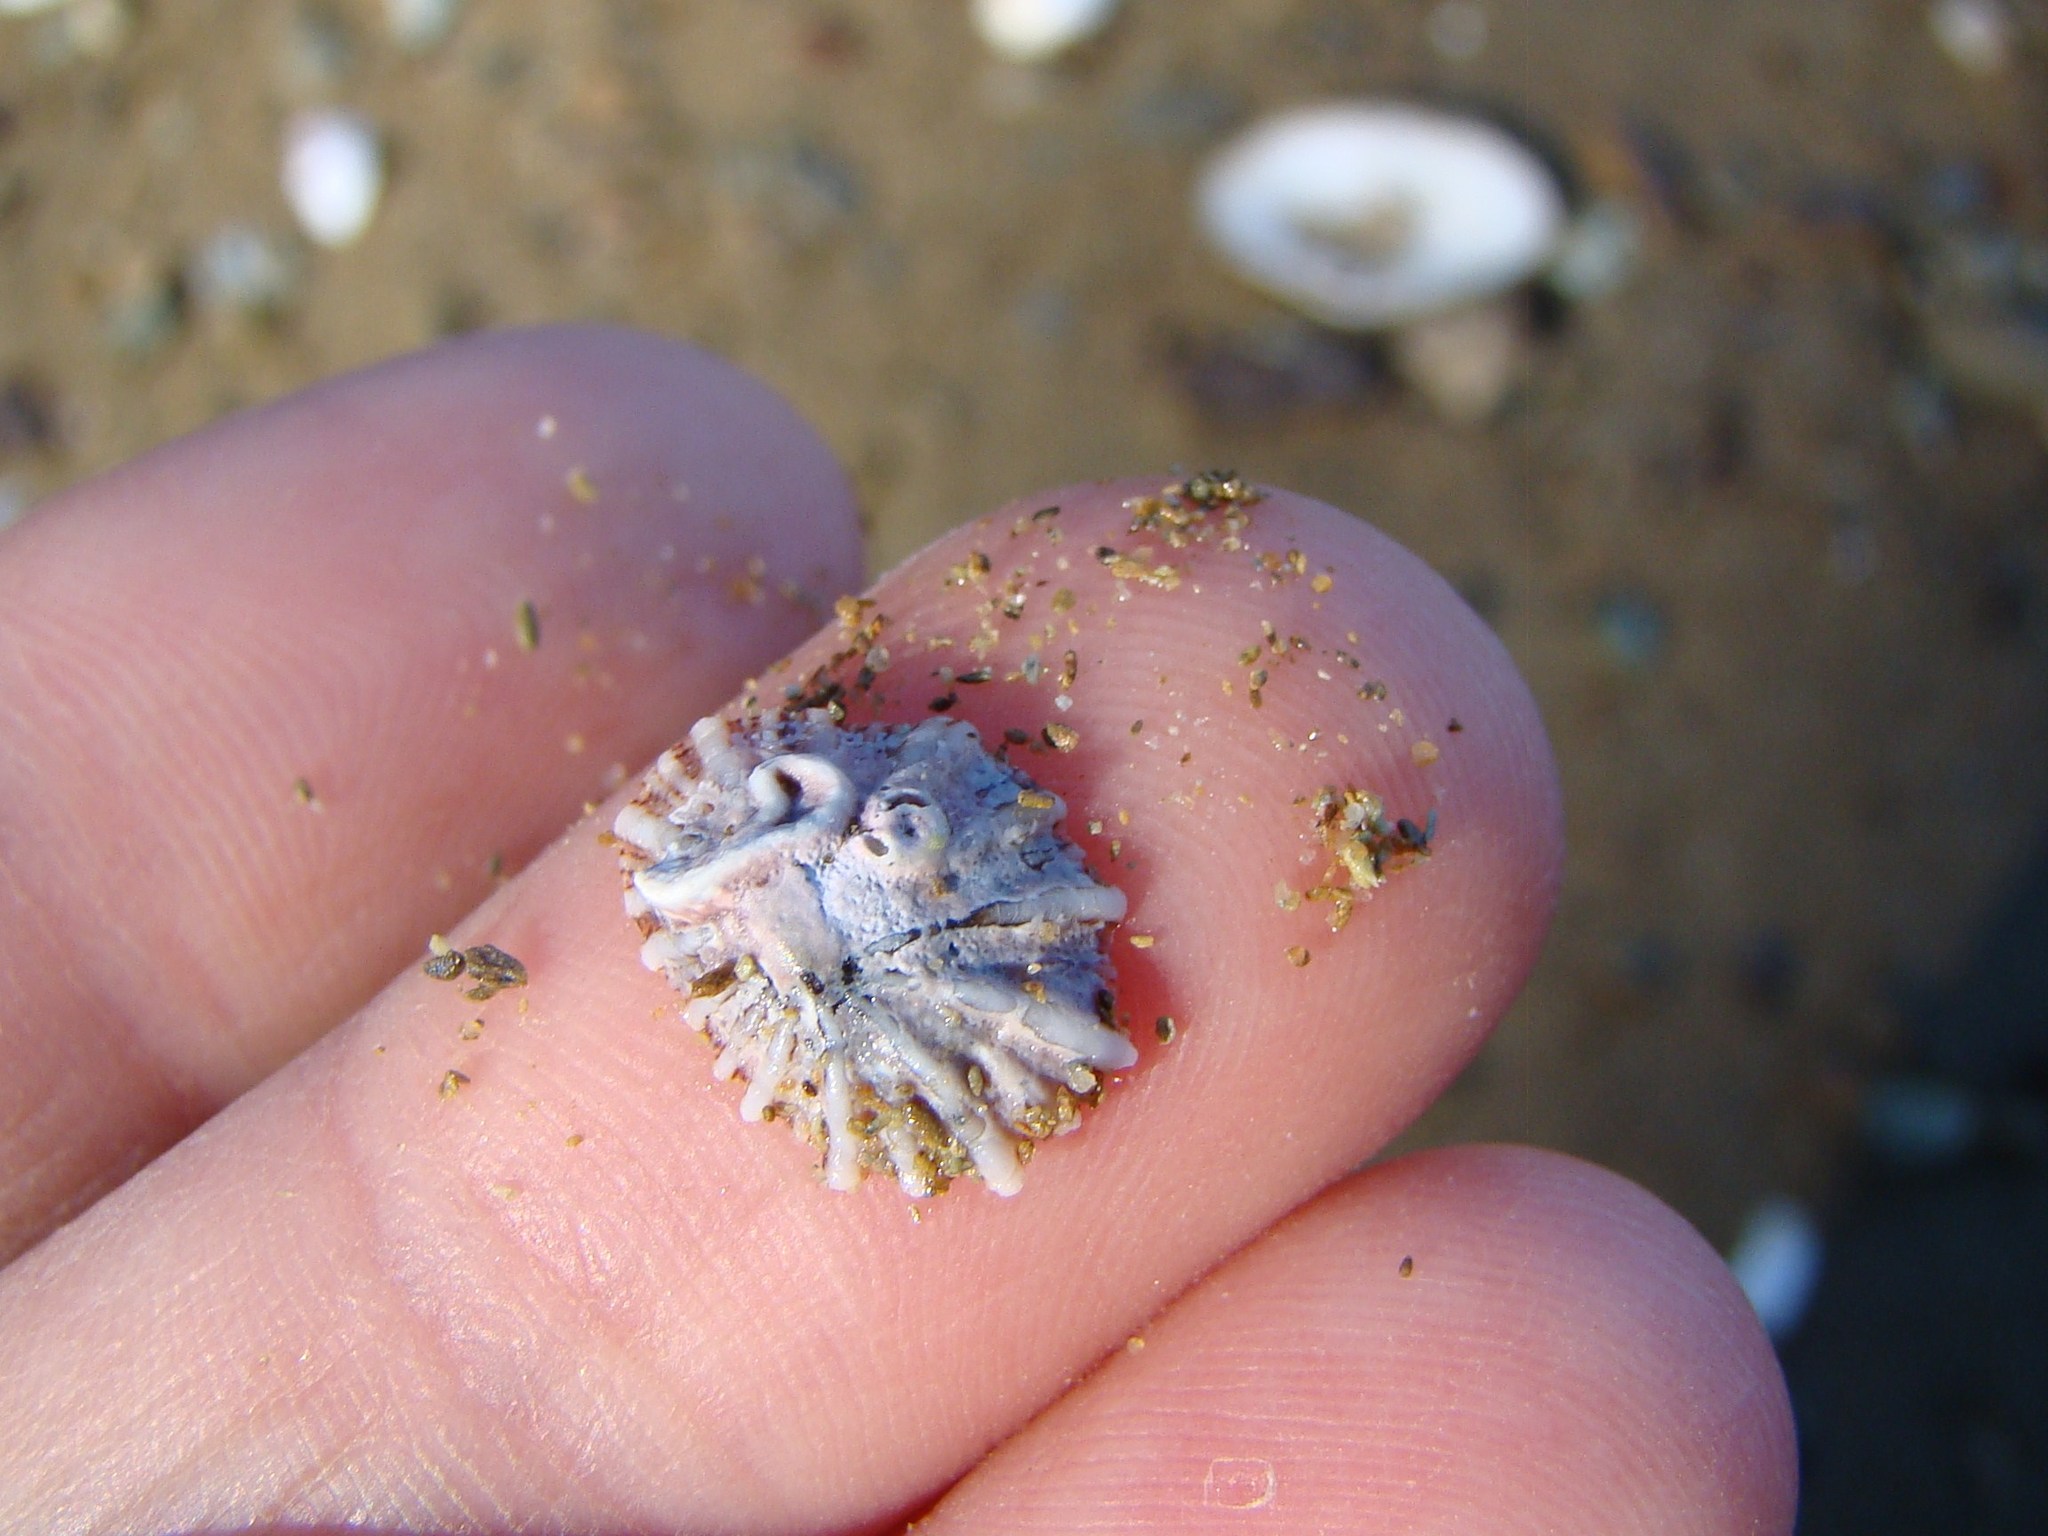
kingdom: Animalia
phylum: Mollusca
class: Gastropoda
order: Siphonariida
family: Siphonariidae
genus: Siphonaria
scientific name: Siphonaria australis
